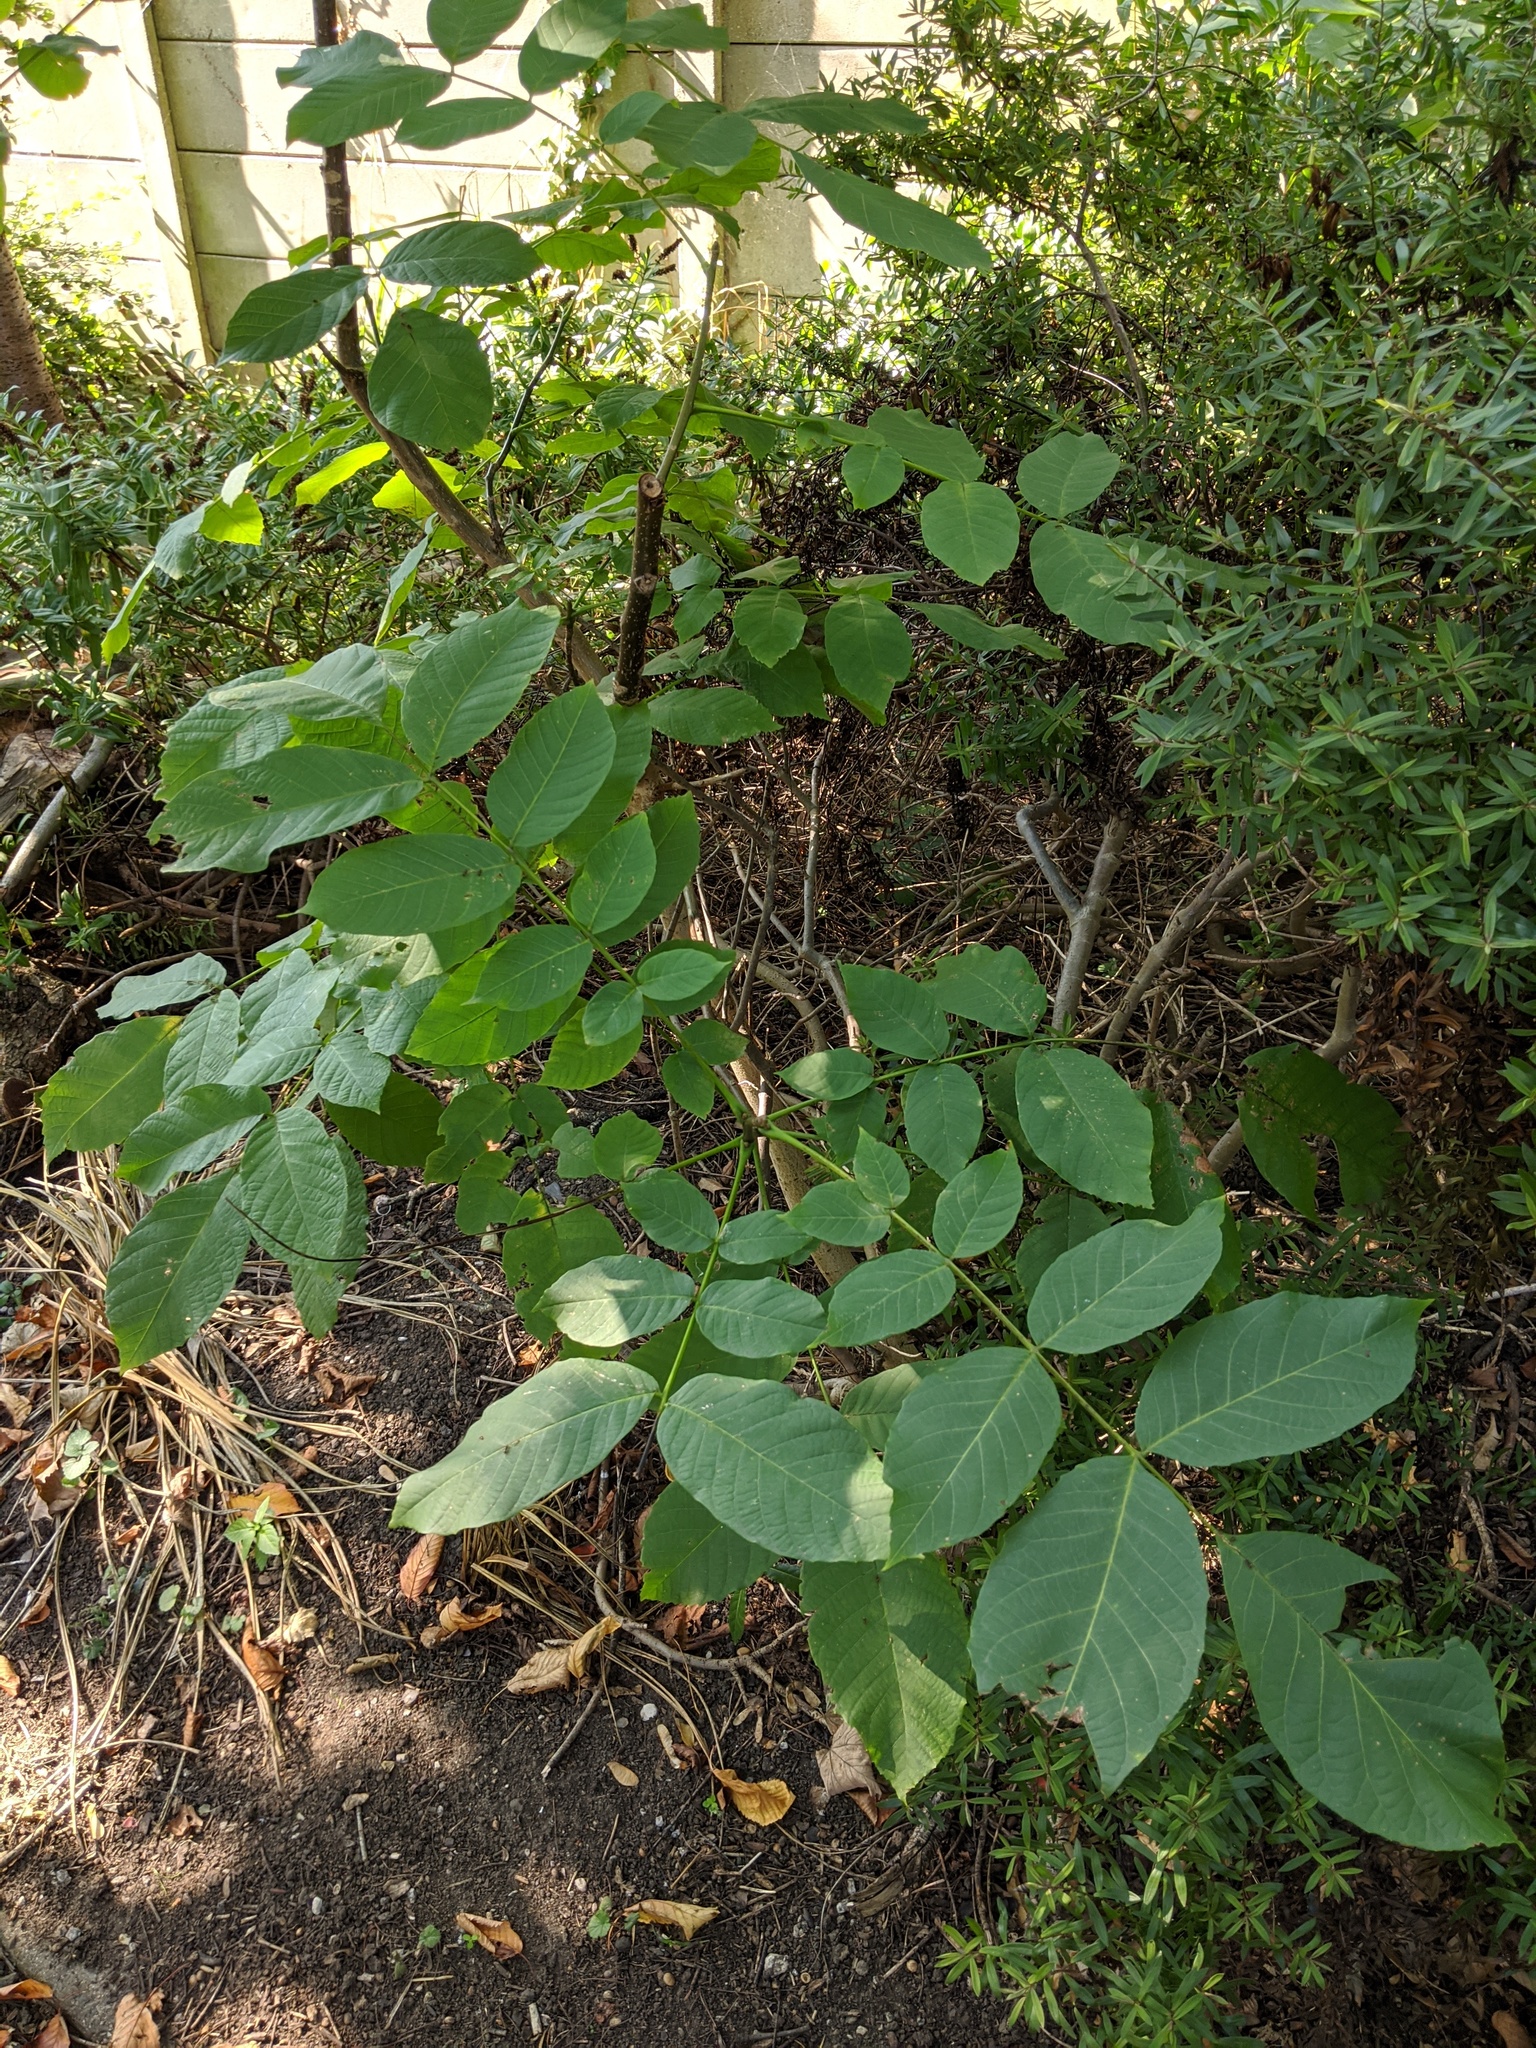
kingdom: Plantae
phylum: Tracheophyta
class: Magnoliopsida
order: Fagales
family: Juglandaceae
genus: Juglans
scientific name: Juglans regia
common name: Walnut
